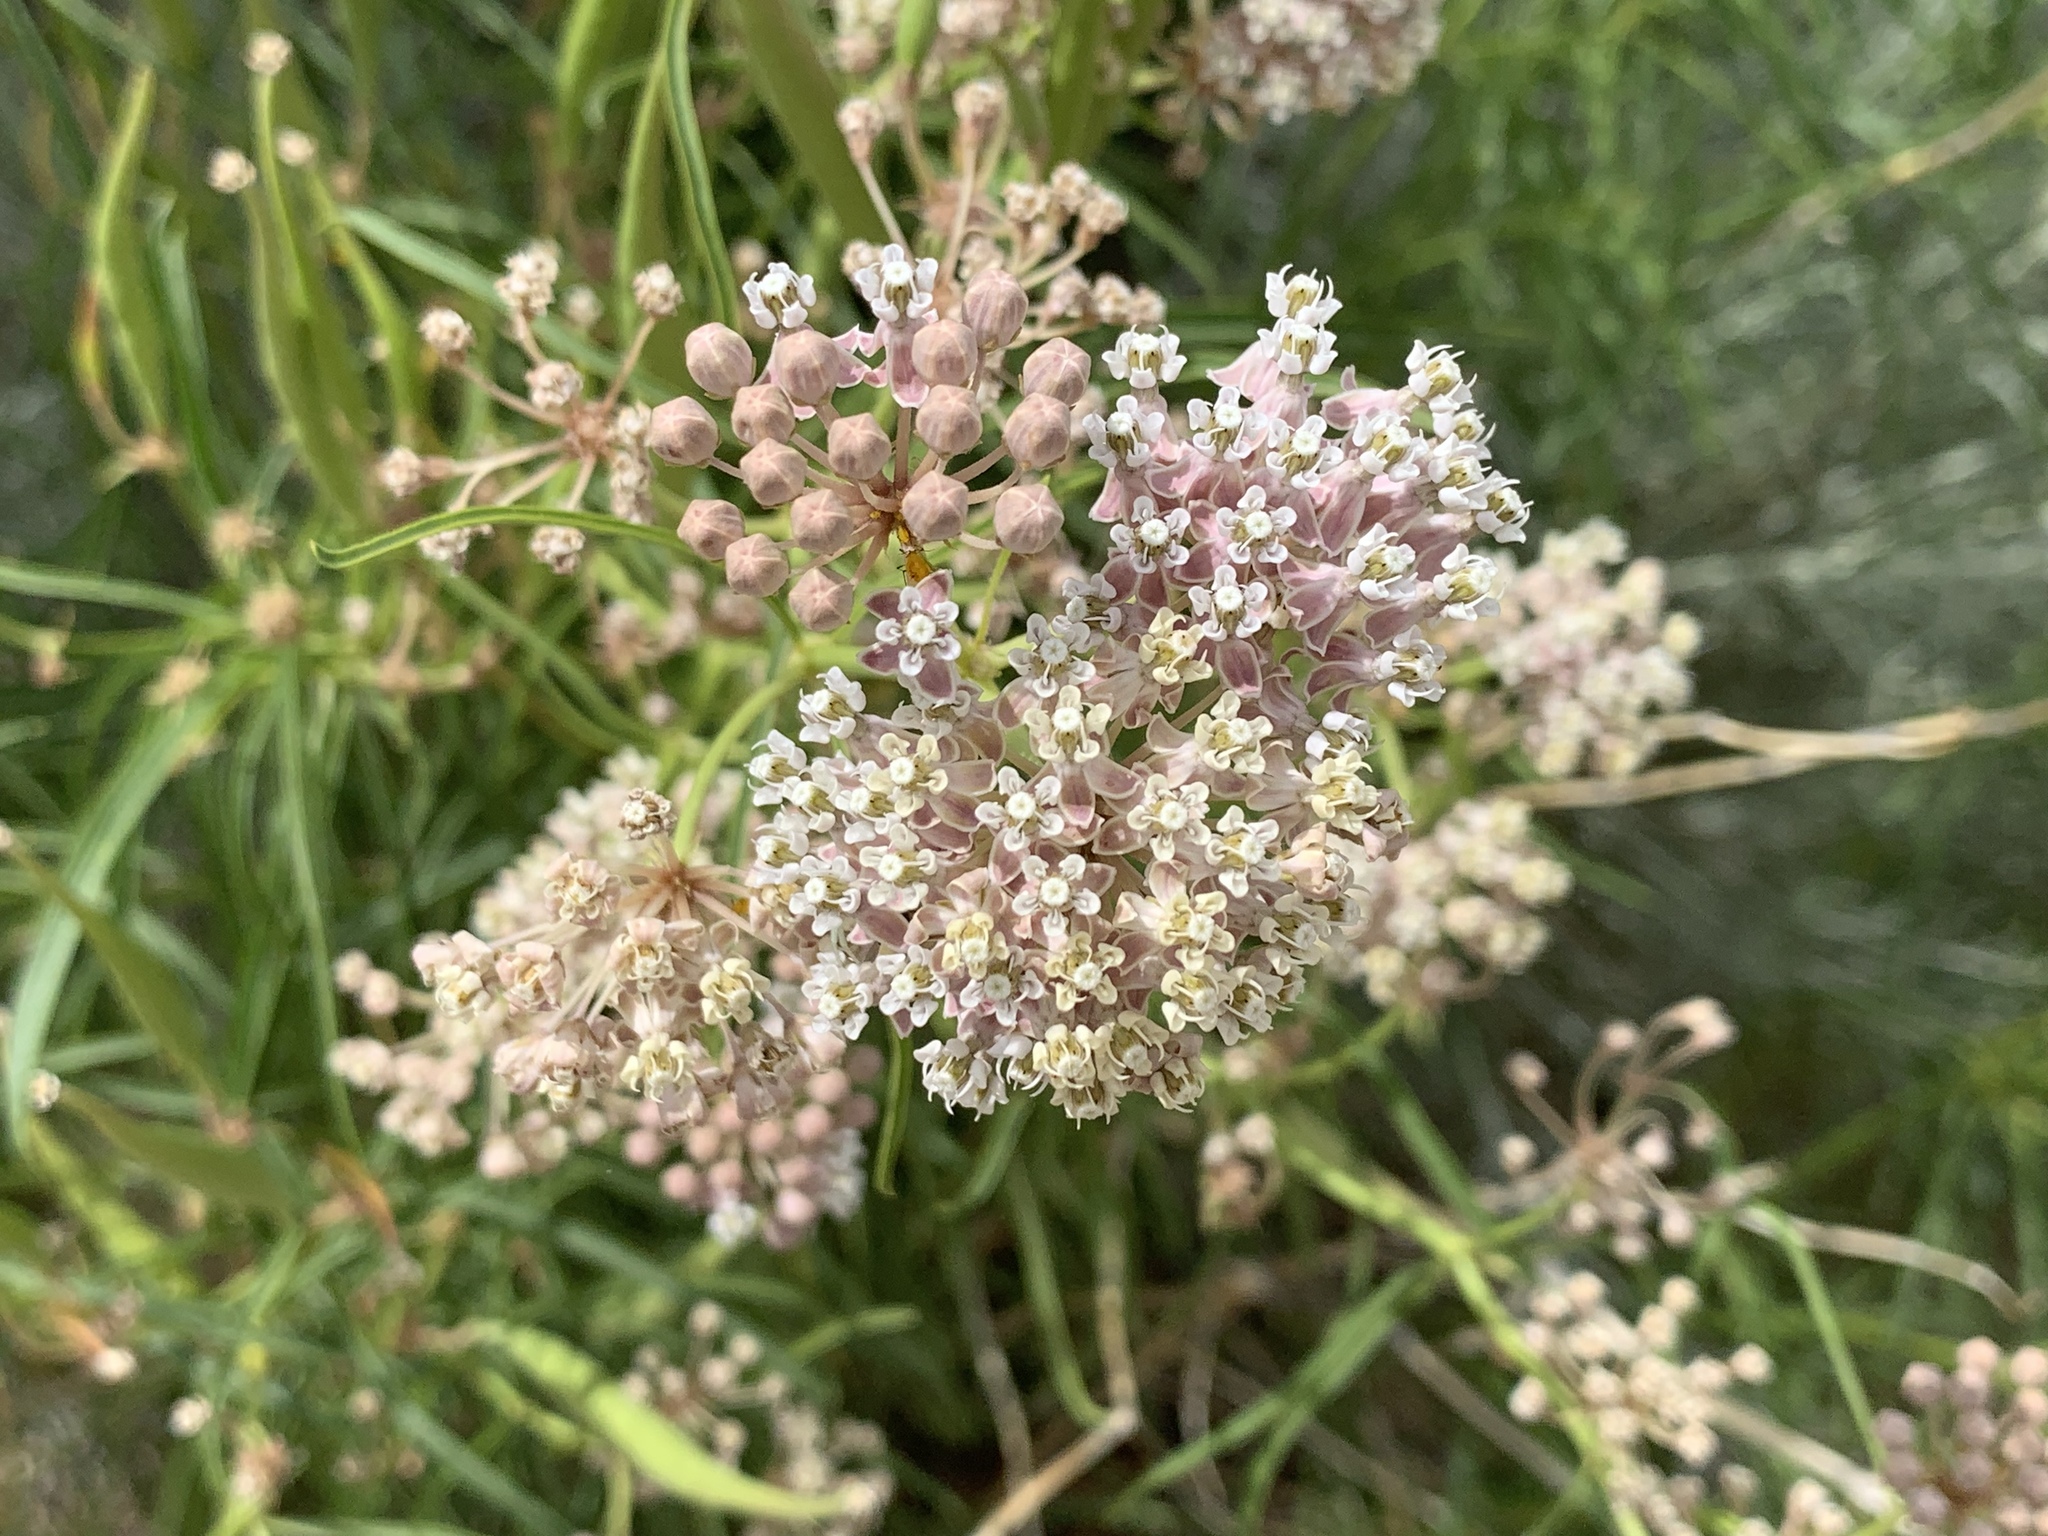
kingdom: Plantae
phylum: Tracheophyta
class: Magnoliopsida
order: Gentianales
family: Apocynaceae
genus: Asclepias
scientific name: Asclepias fascicularis
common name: Mexican milkweed
